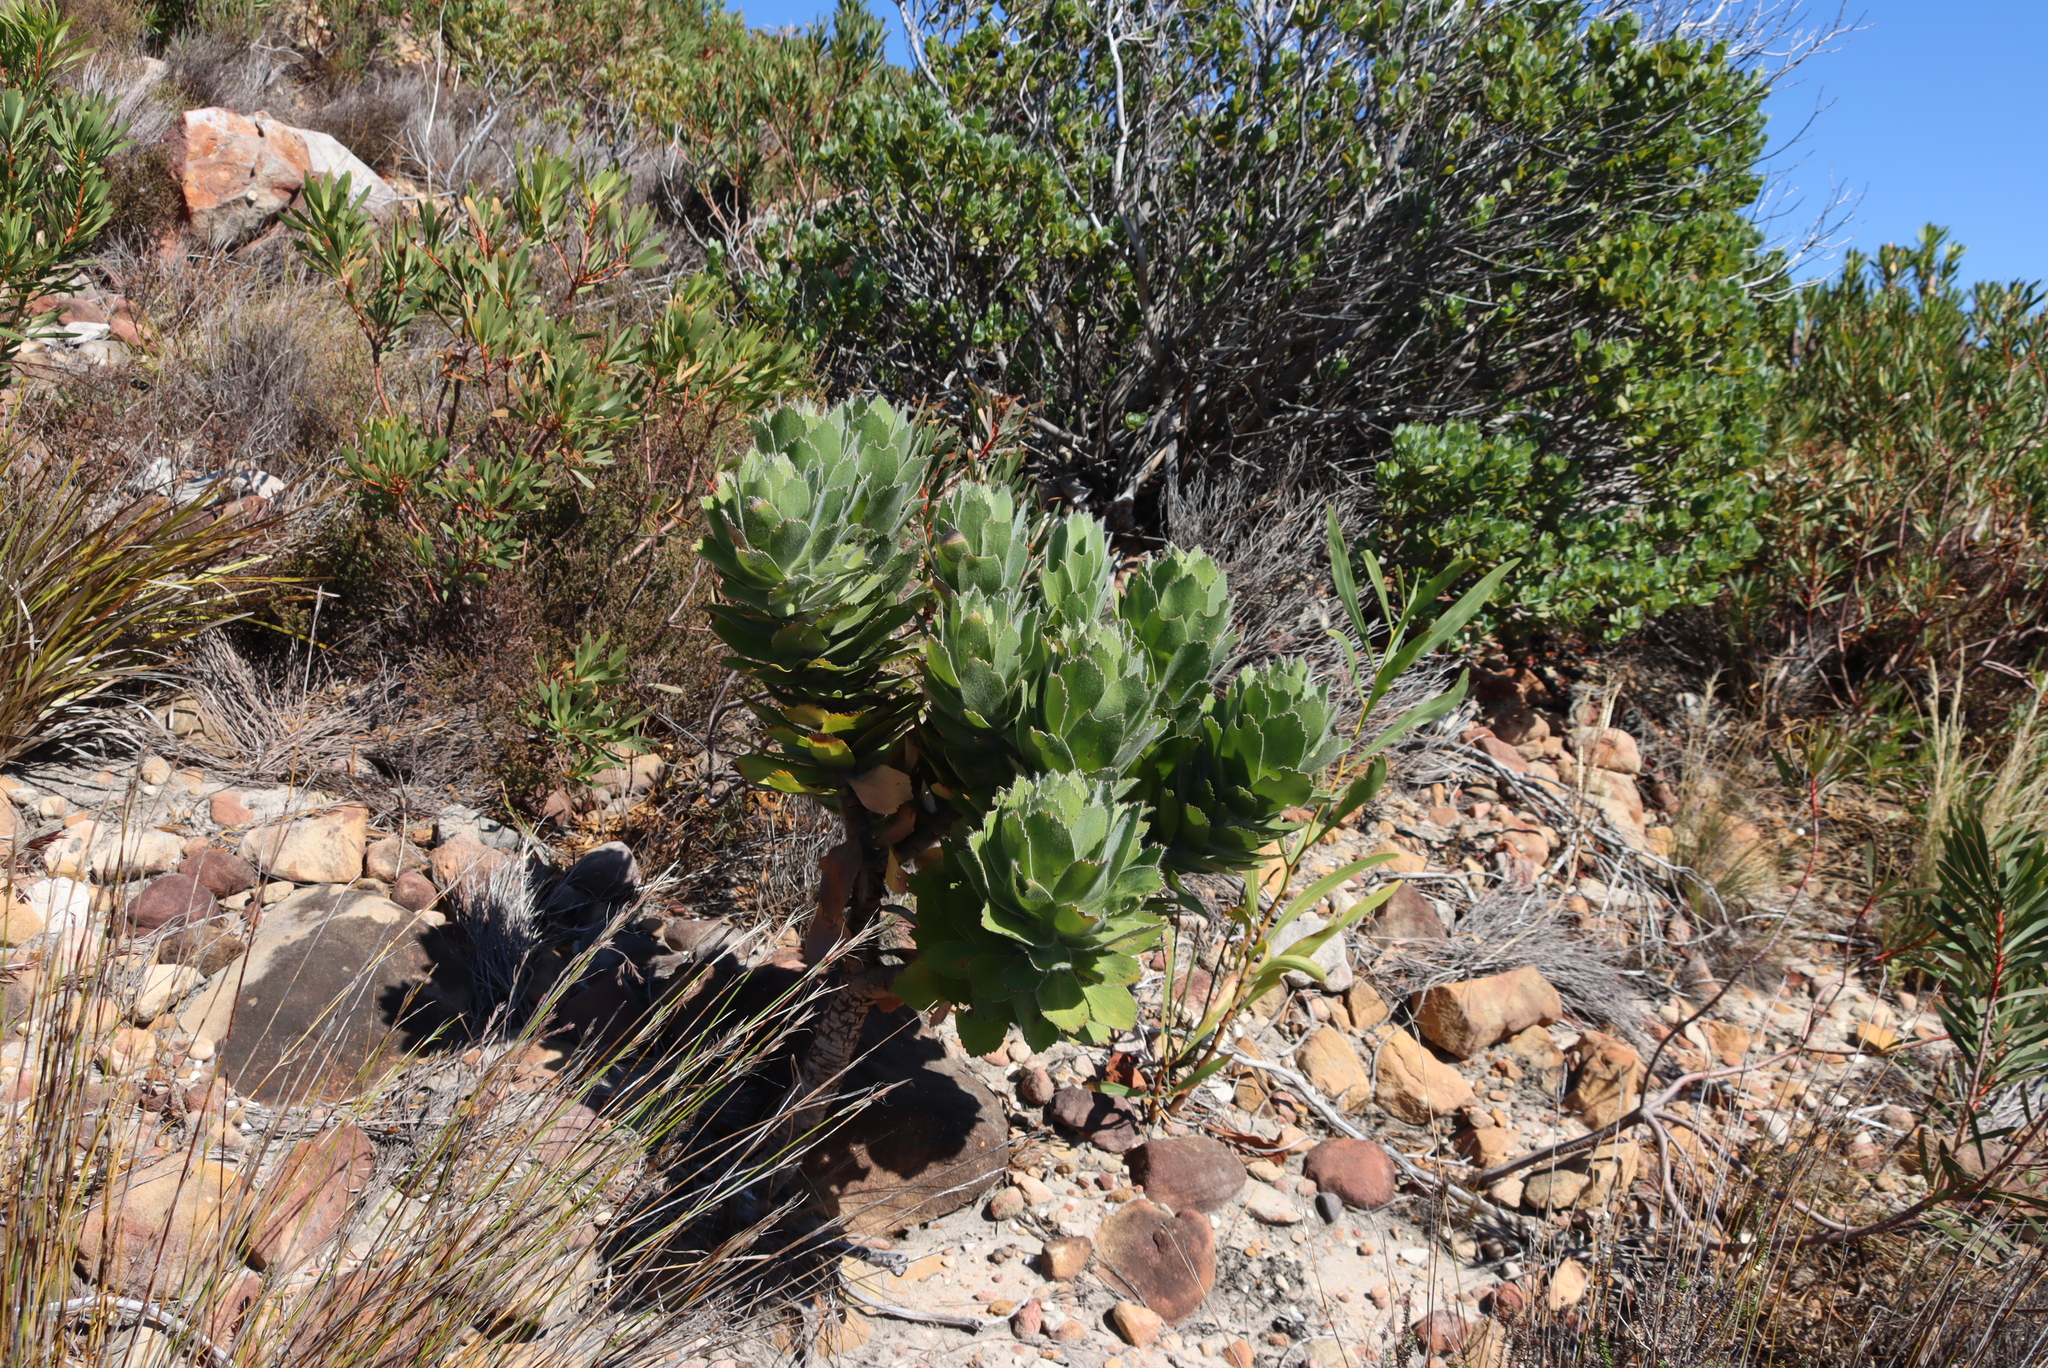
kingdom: Plantae
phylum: Tracheophyta
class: Magnoliopsida
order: Proteales
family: Proteaceae
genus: Leucospermum
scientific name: Leucospermum conocarpodendron
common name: Tree pincushion
